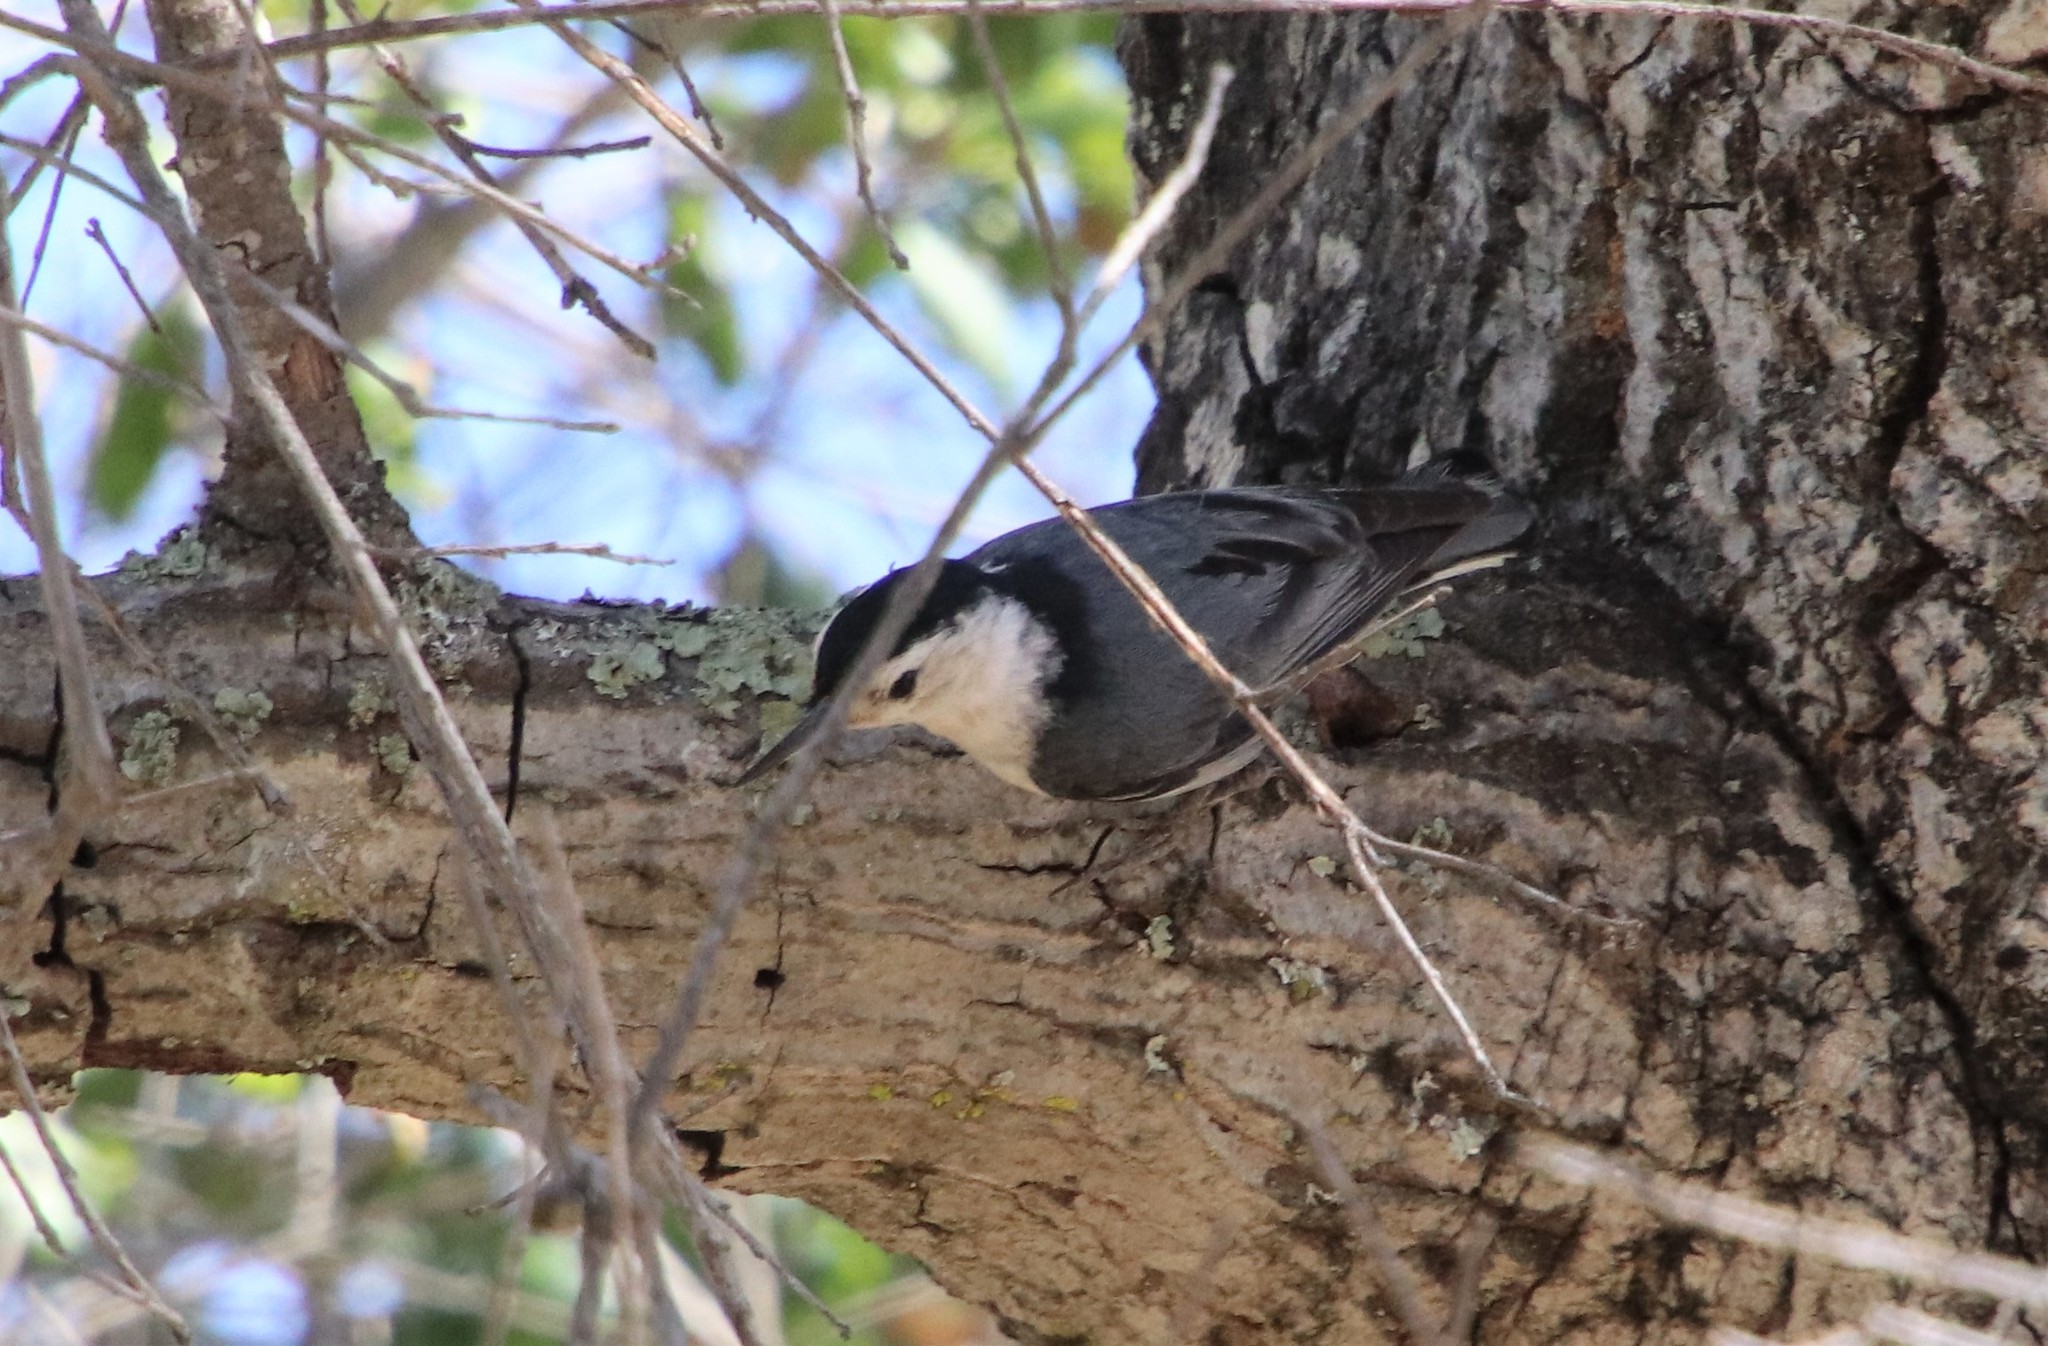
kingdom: Animalia
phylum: Chordata
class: Aves
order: Passeriformes
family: Sittidae
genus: Sitta
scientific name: Sitta carolinensis
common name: White-breasted nuthatch
